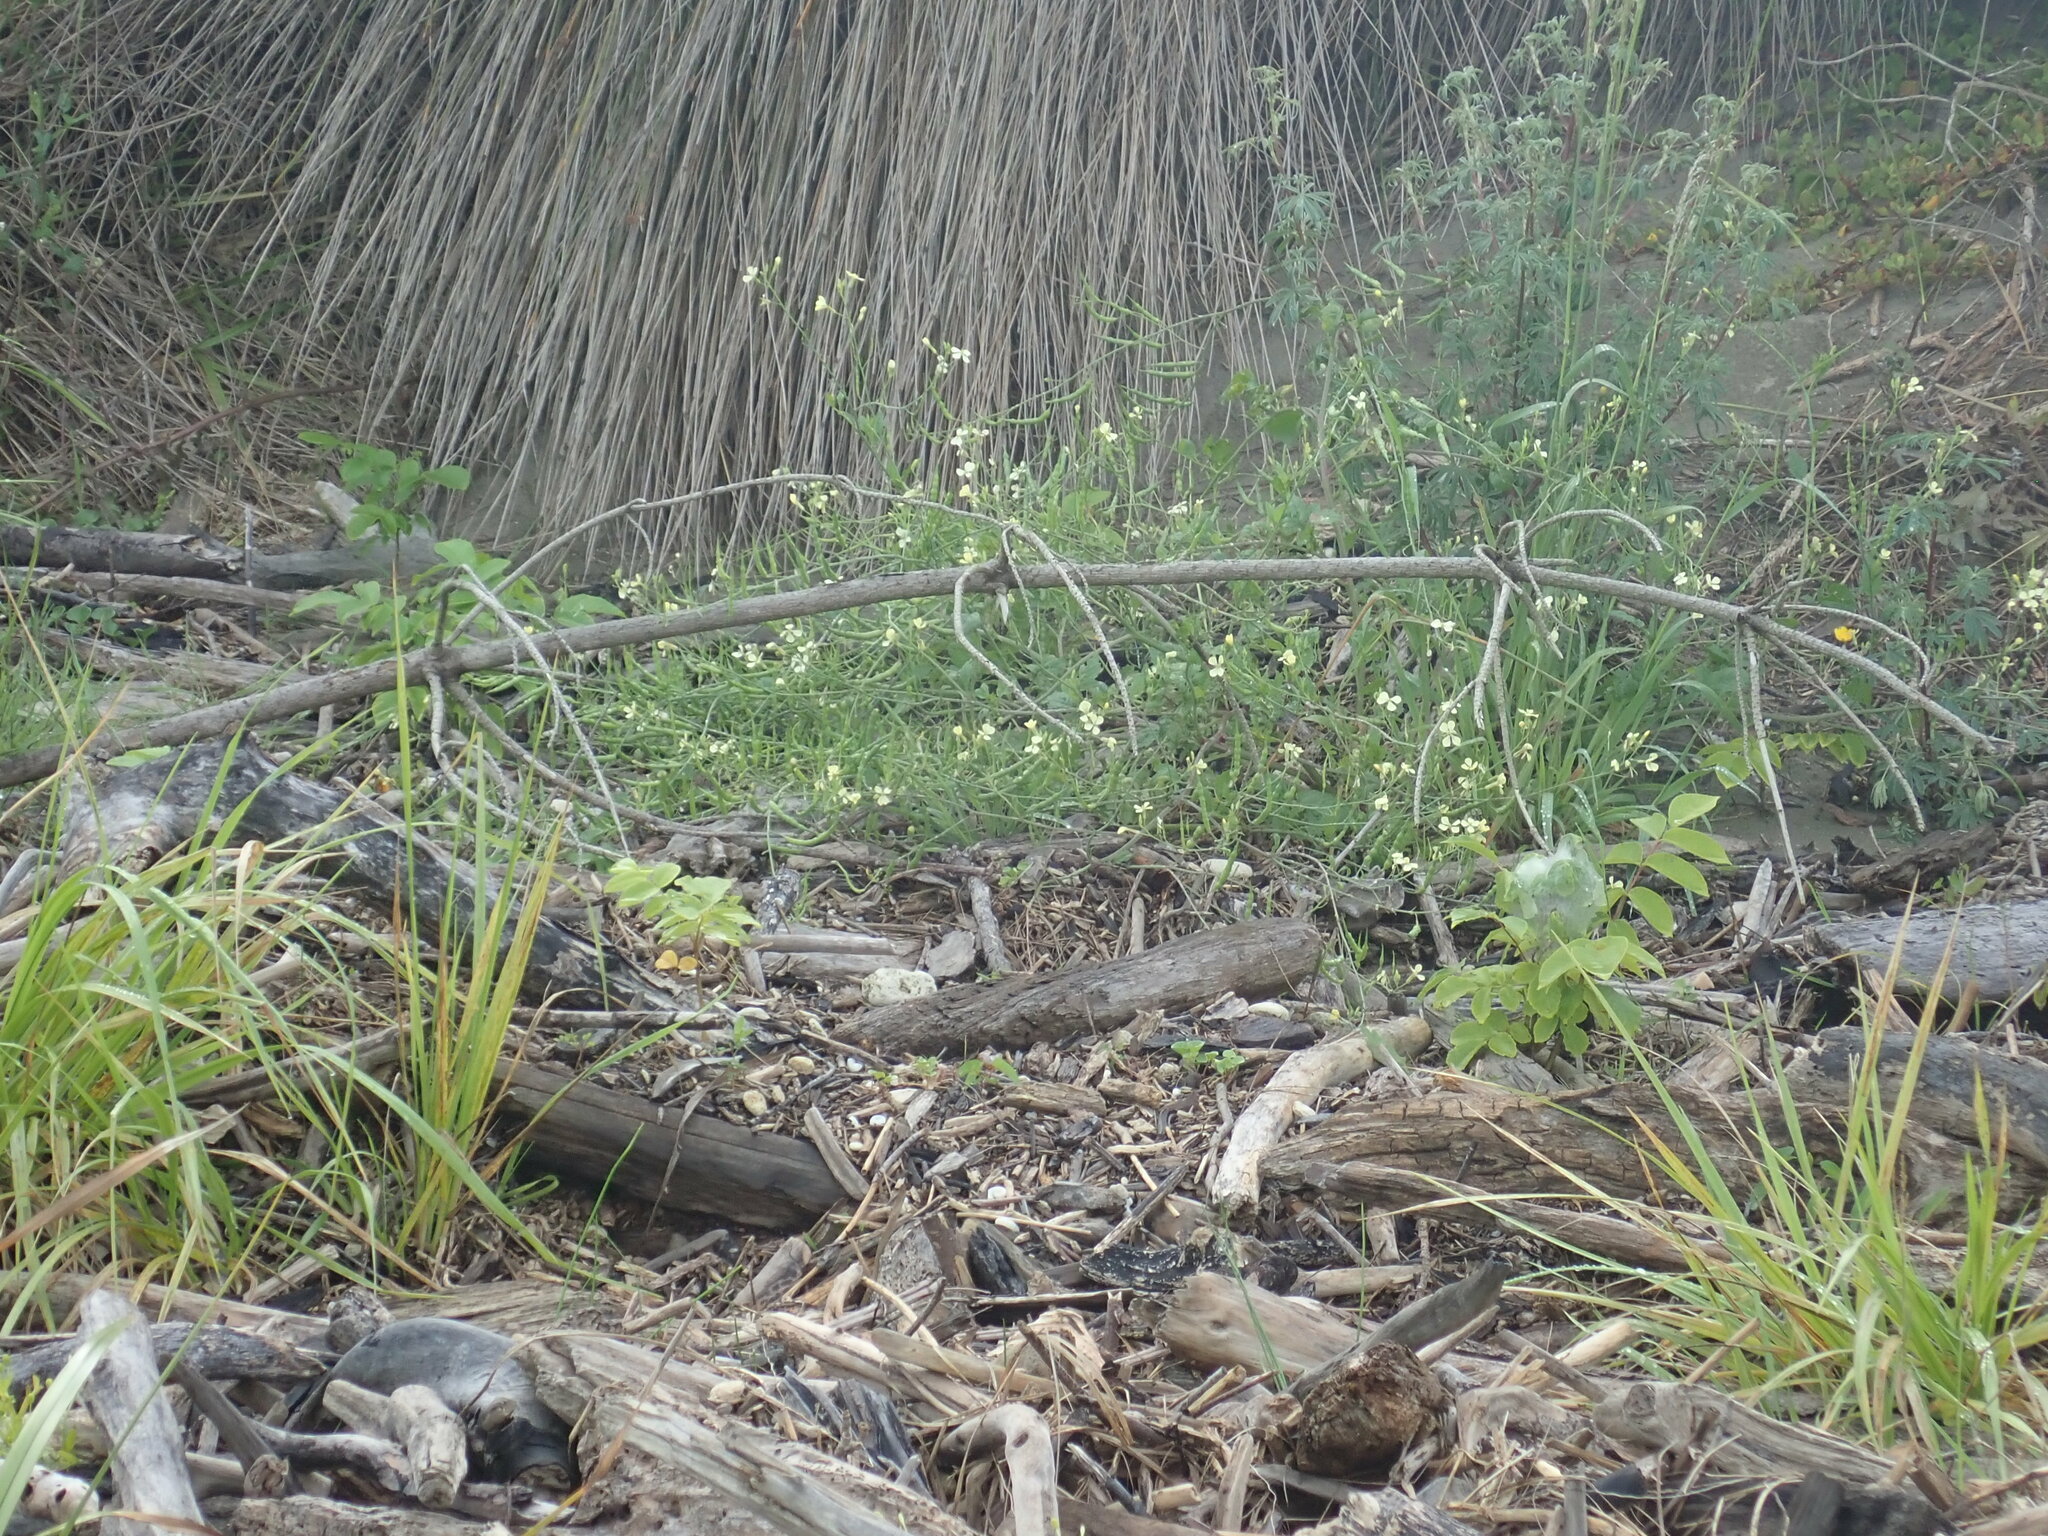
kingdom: Plantae
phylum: Tracheophyta
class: Magnoliopsida
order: Brassicales
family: Brassicaceae
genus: Raphanus
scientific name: Raphanus raphanistrum
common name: Wild radish
